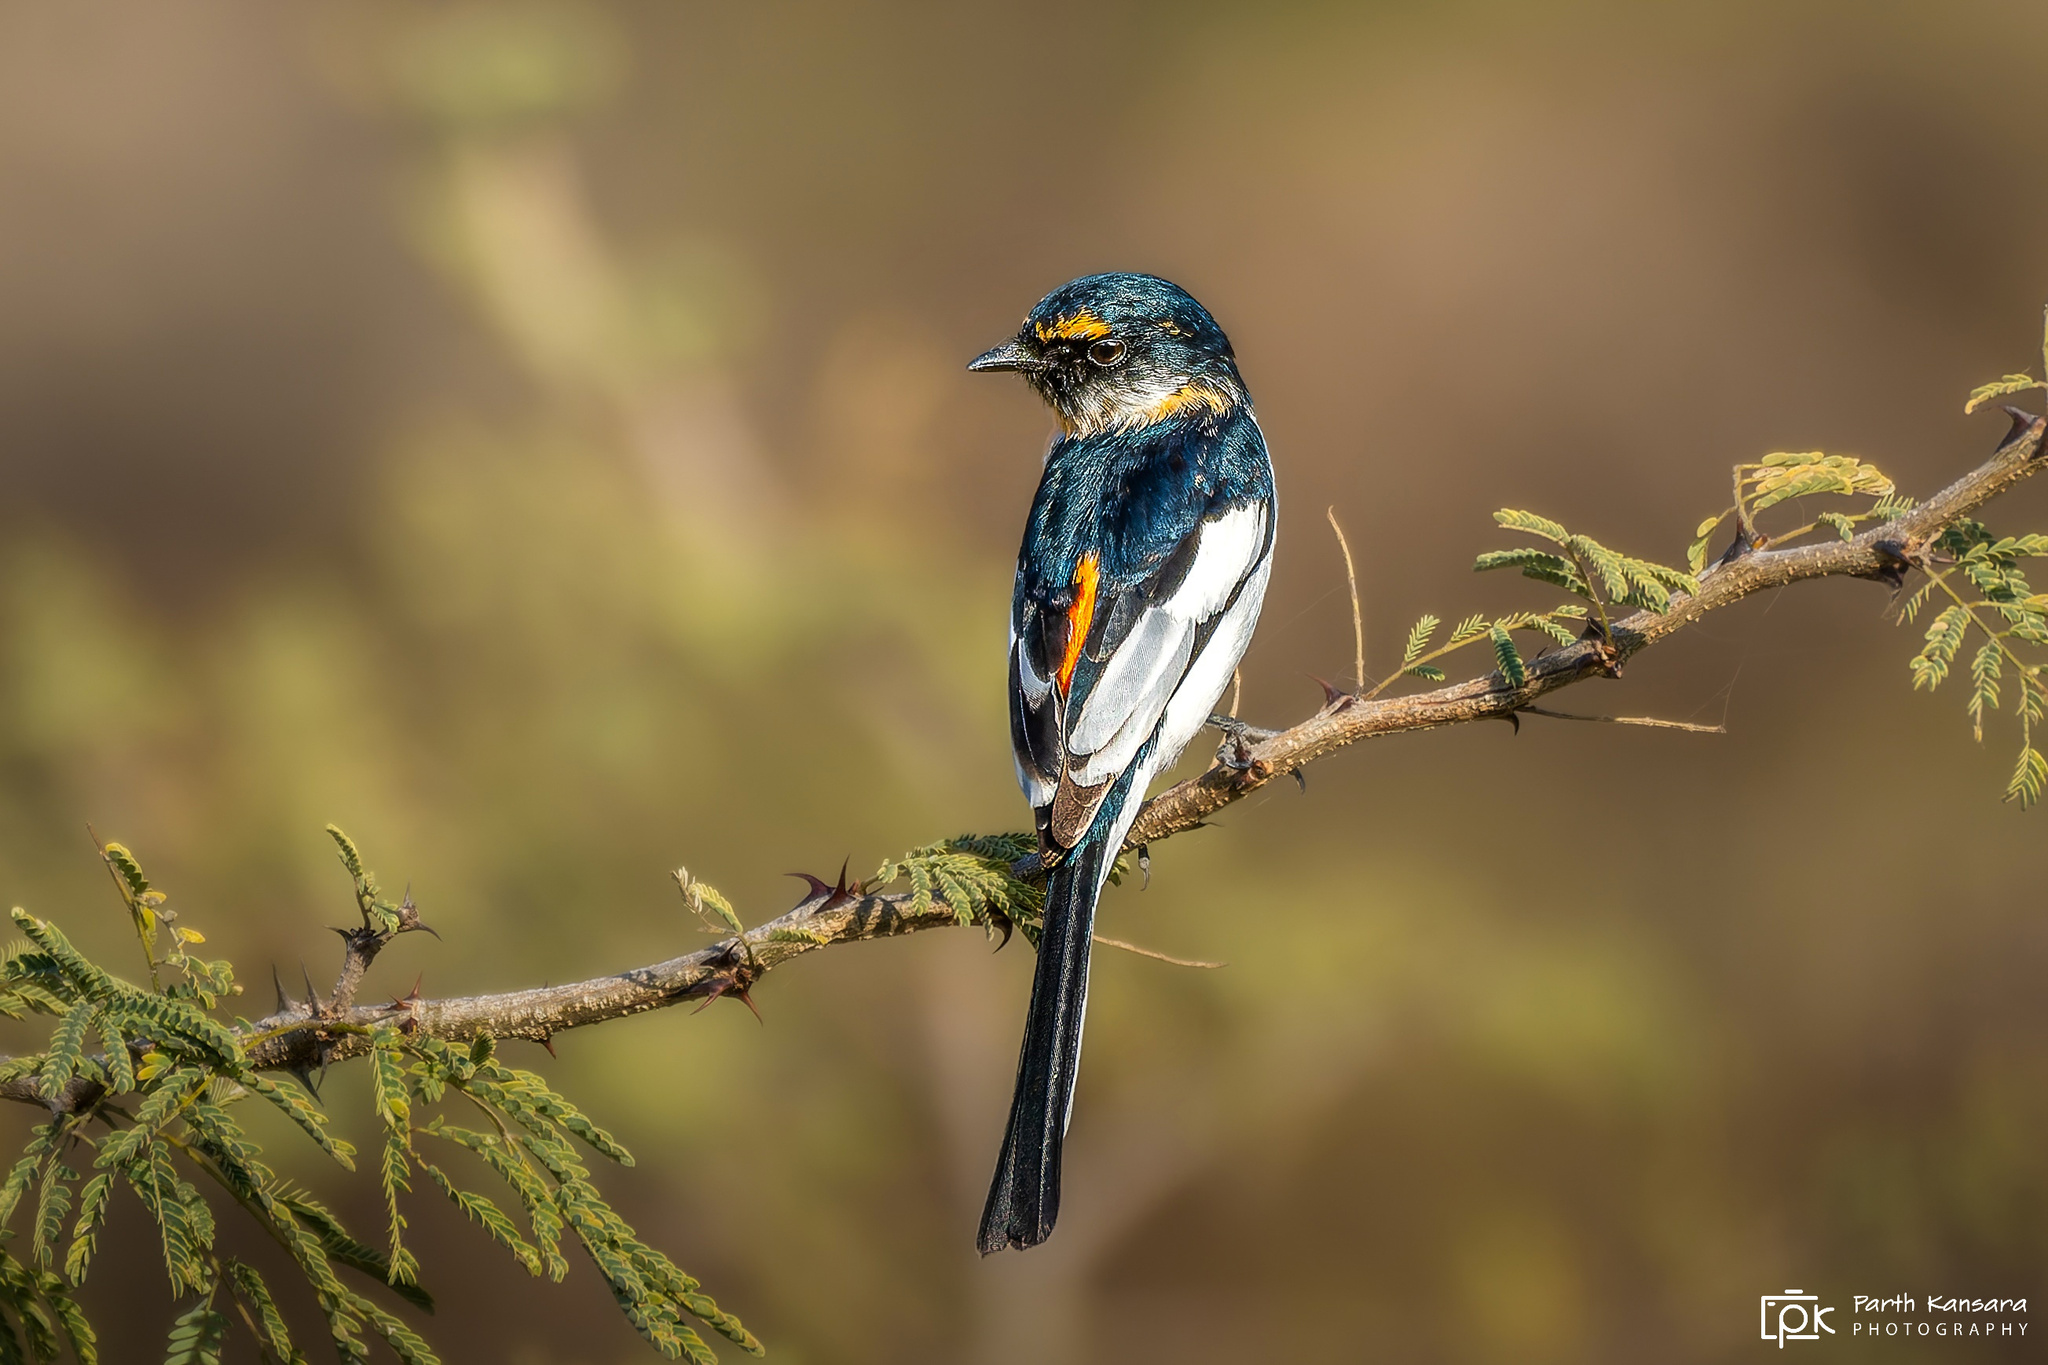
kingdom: Animalia
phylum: Chordata
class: Aves
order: Passeriformes
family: Campephagidae
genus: Pericrocotus
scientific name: Pericrocotus erythropygius
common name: White-bellied minivet
